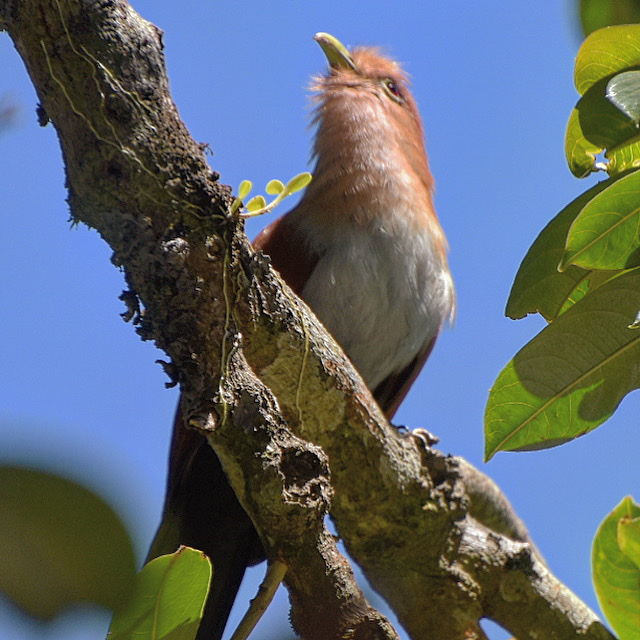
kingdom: Animalia
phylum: Chordata
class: Aves
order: Cuculiformes
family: Cuculidae
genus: Piaya
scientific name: Piaya cayana
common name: Squirrel cuckoo
